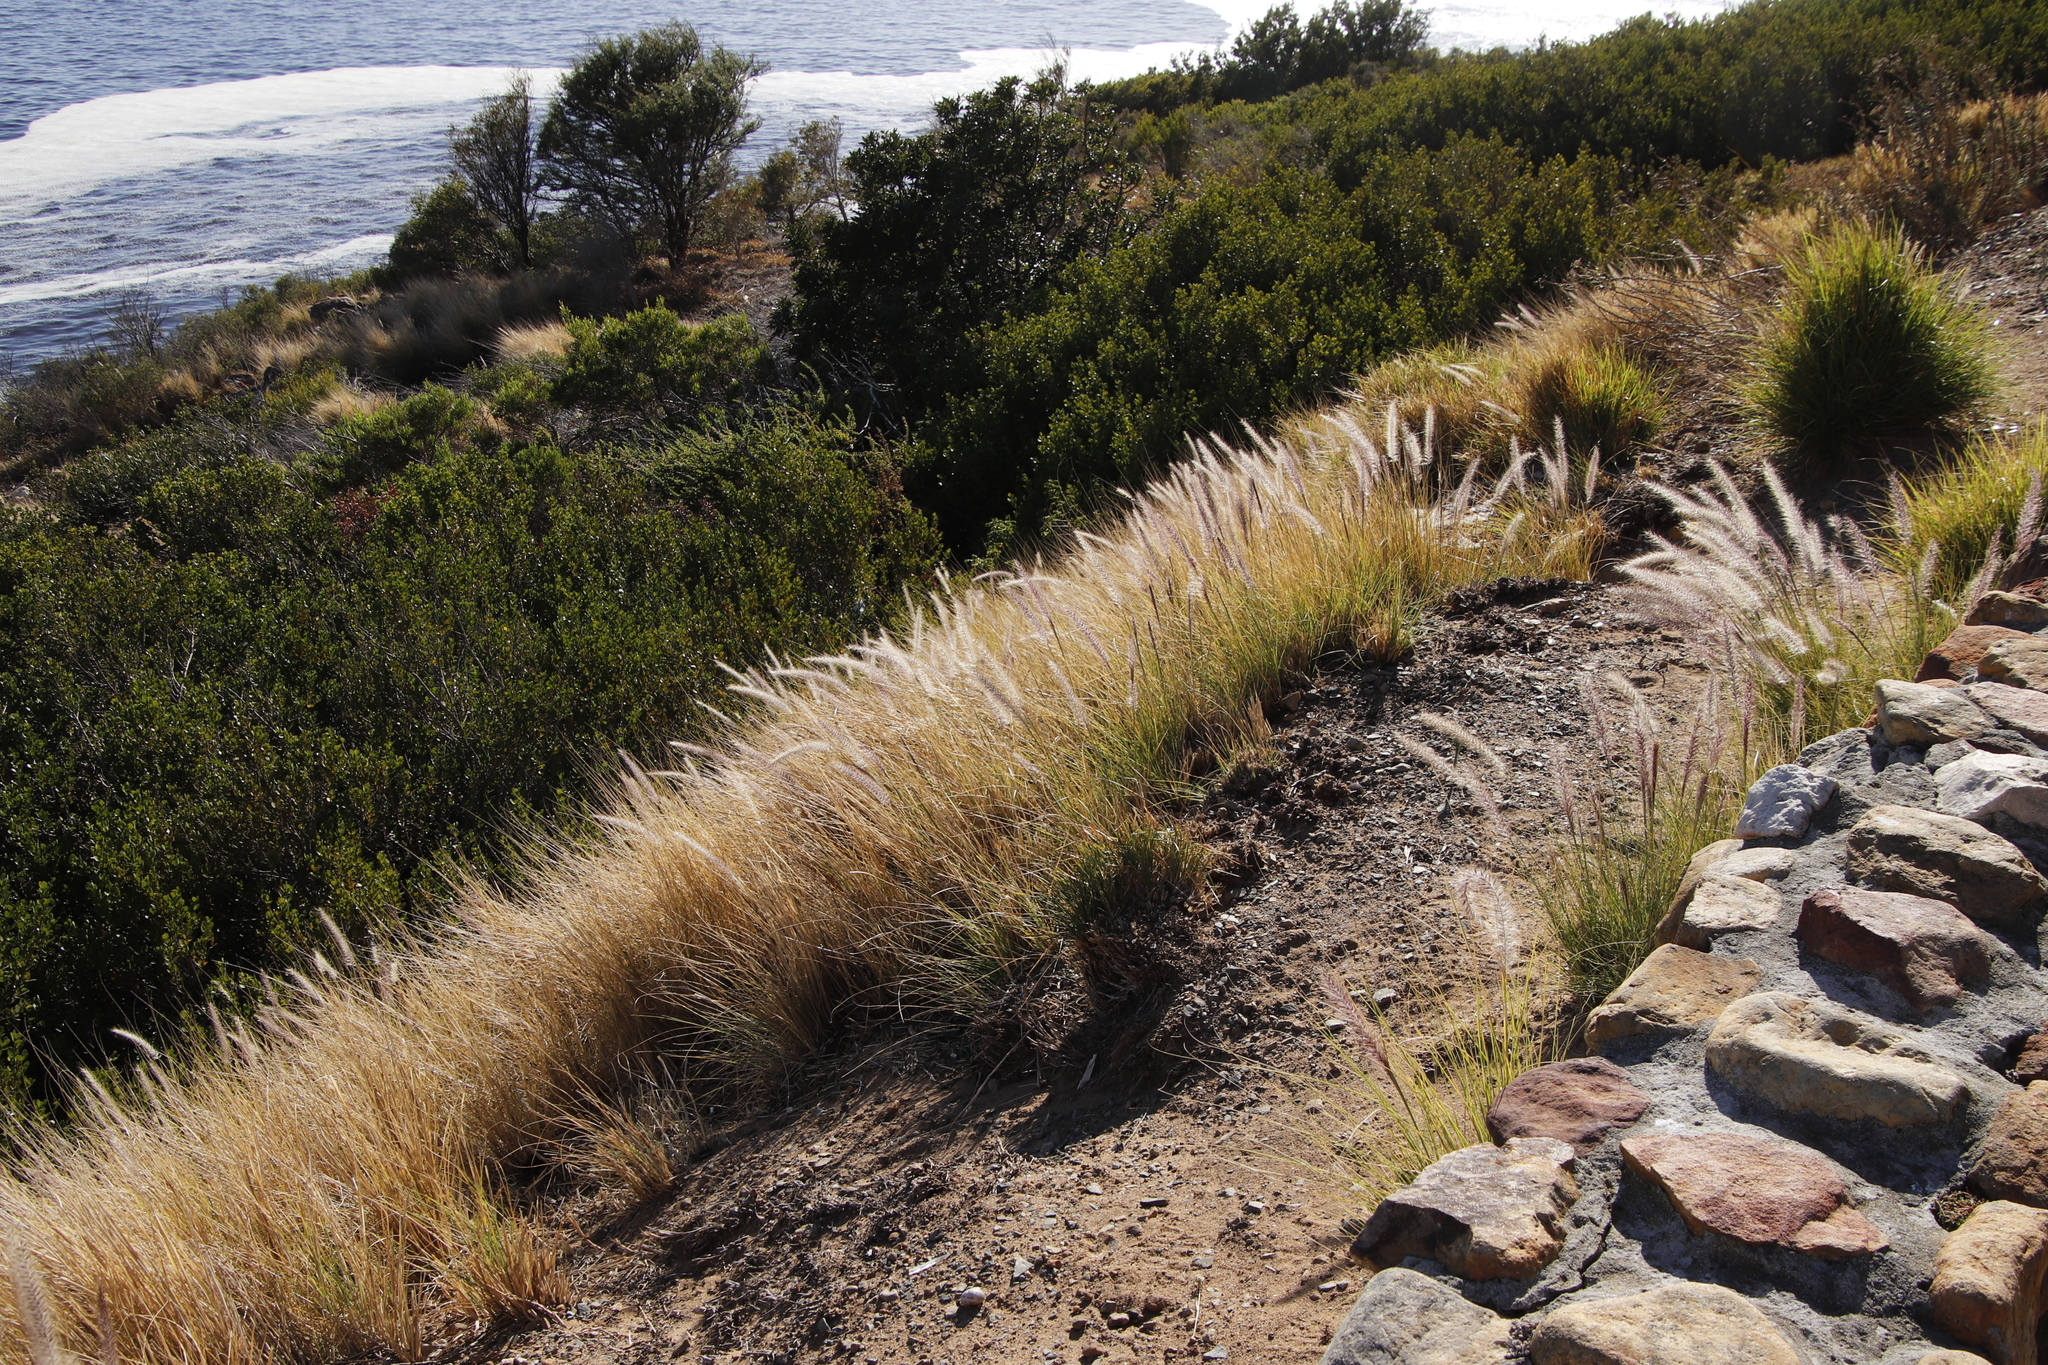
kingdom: Plantae
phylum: Tracheophyta
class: Liliopsida
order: Poales
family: Poaceae
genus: Cenchrus
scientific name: Cenchrus setaceus
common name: Crimson fountaingrass
